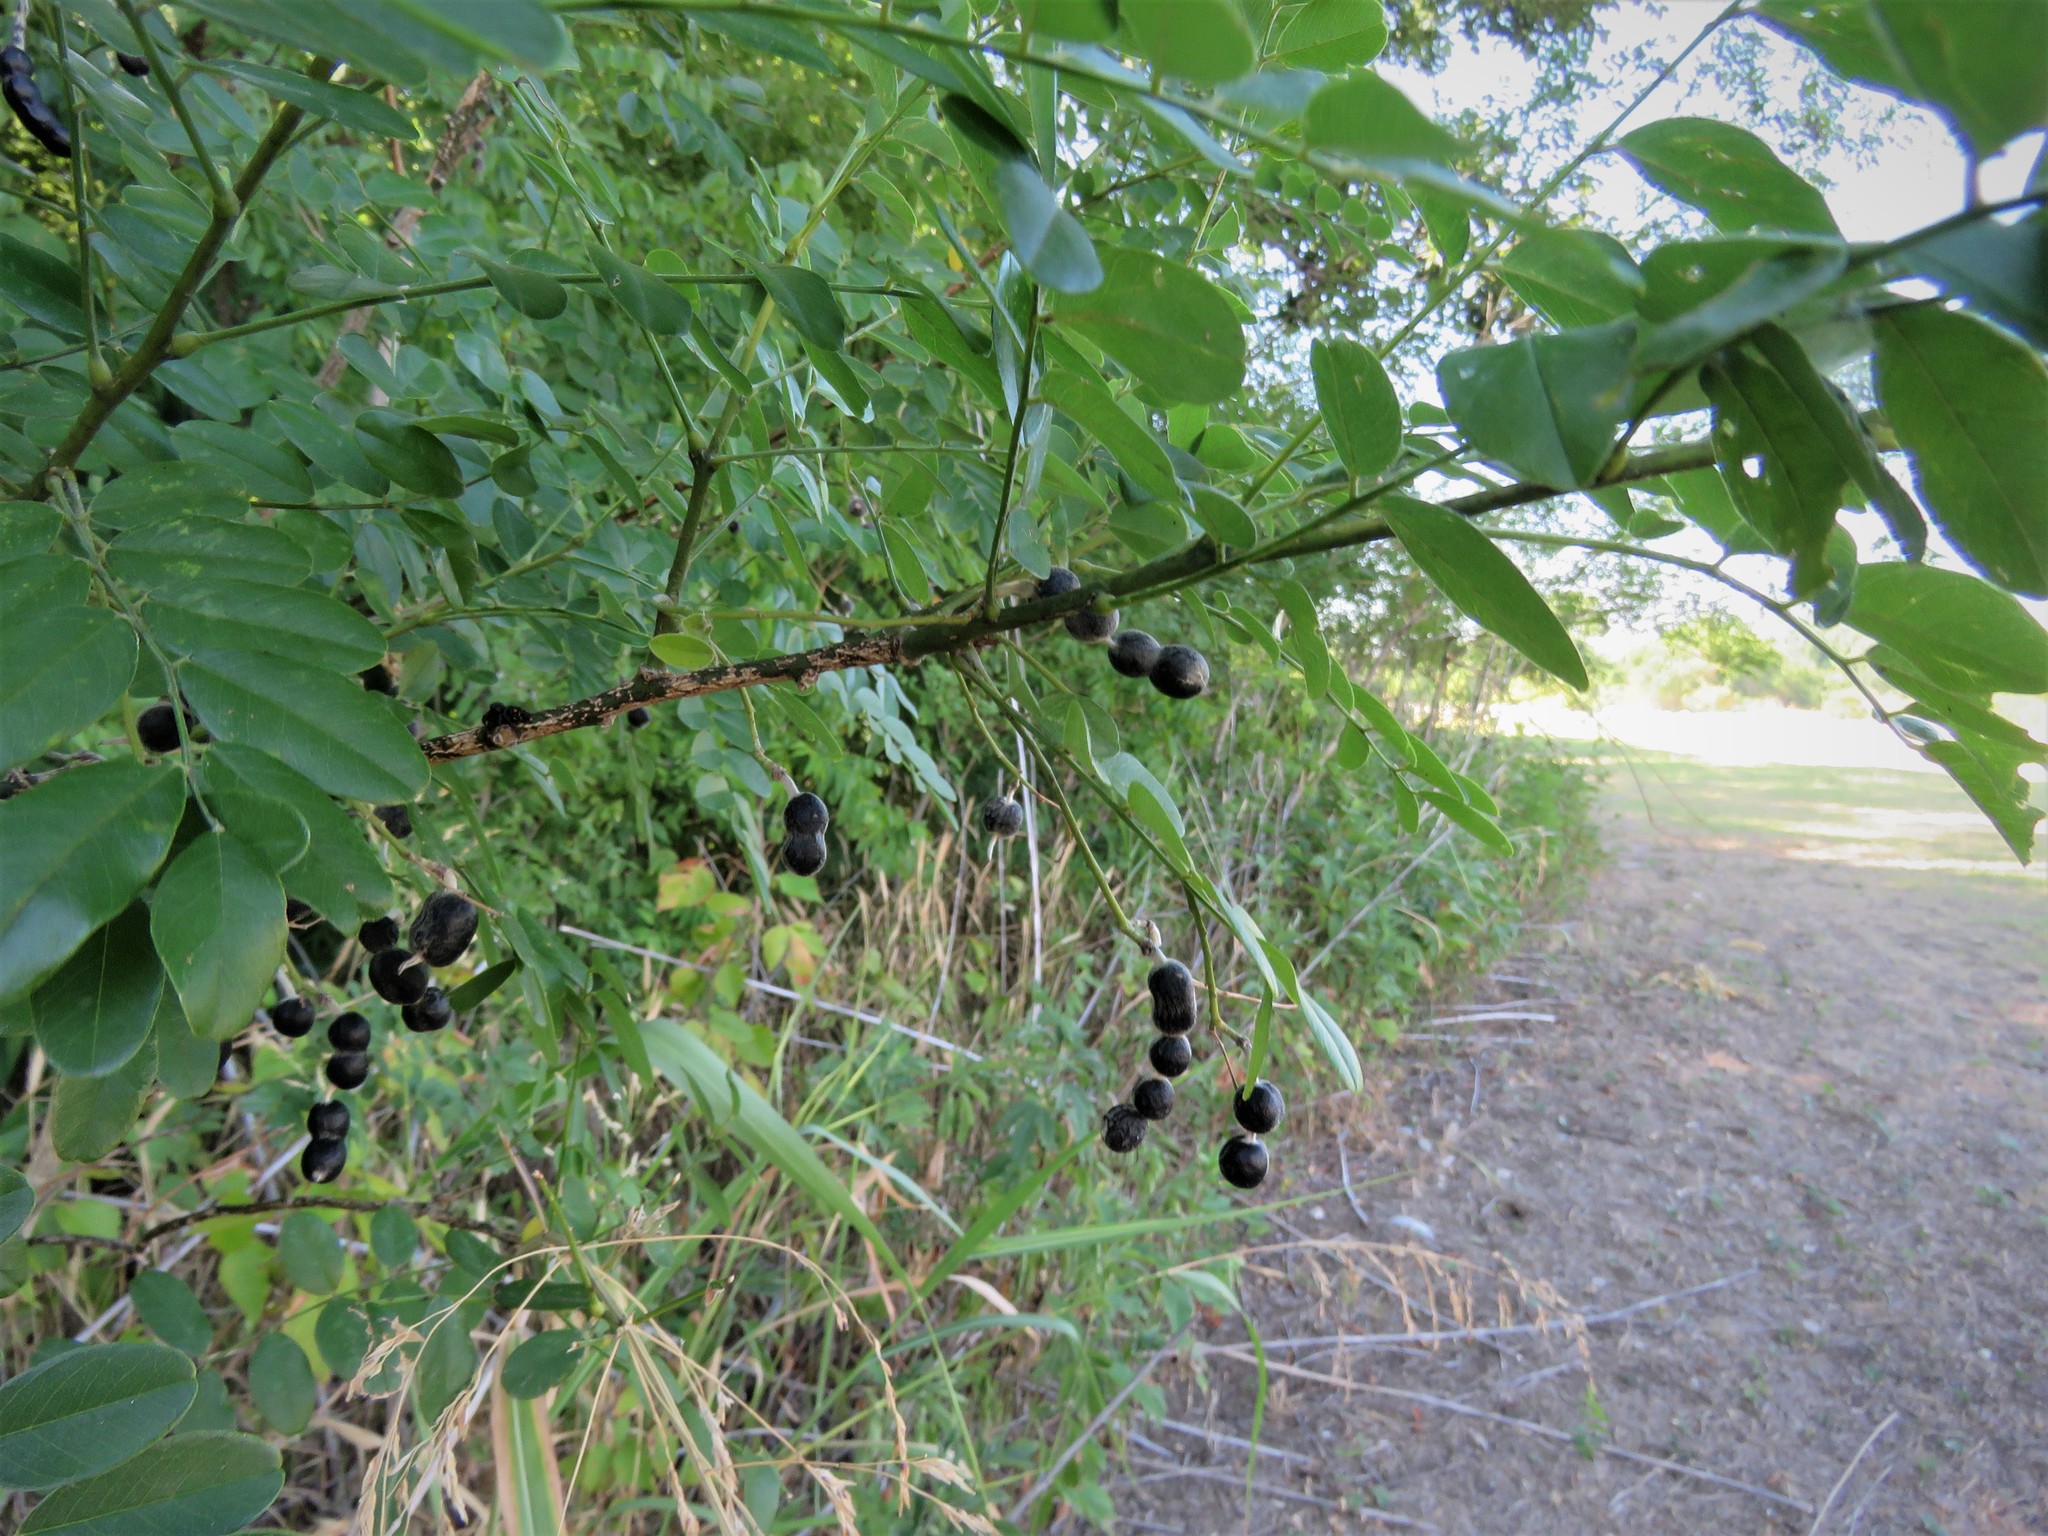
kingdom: Plantae
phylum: Tracheophyta
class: Magnoliopsida
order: Fabales
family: Fabaceae
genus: Styphnolobium
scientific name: Styphnolobium affine
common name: Texas sophora
